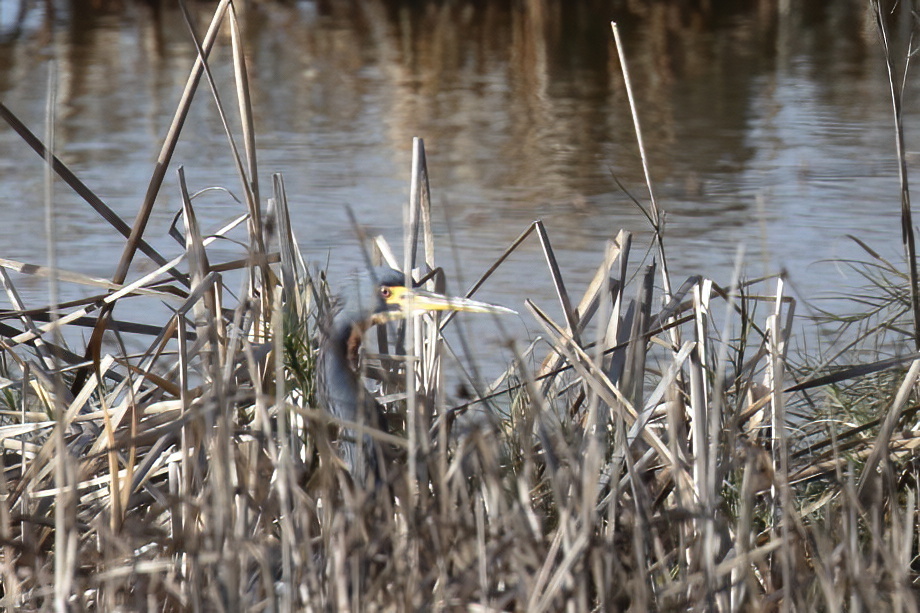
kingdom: Animalia
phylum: Chordata
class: Aves
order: Pelecaniformes
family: Ardeidae
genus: Egretta
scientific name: Egretta tricolor
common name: Tricolored heron
